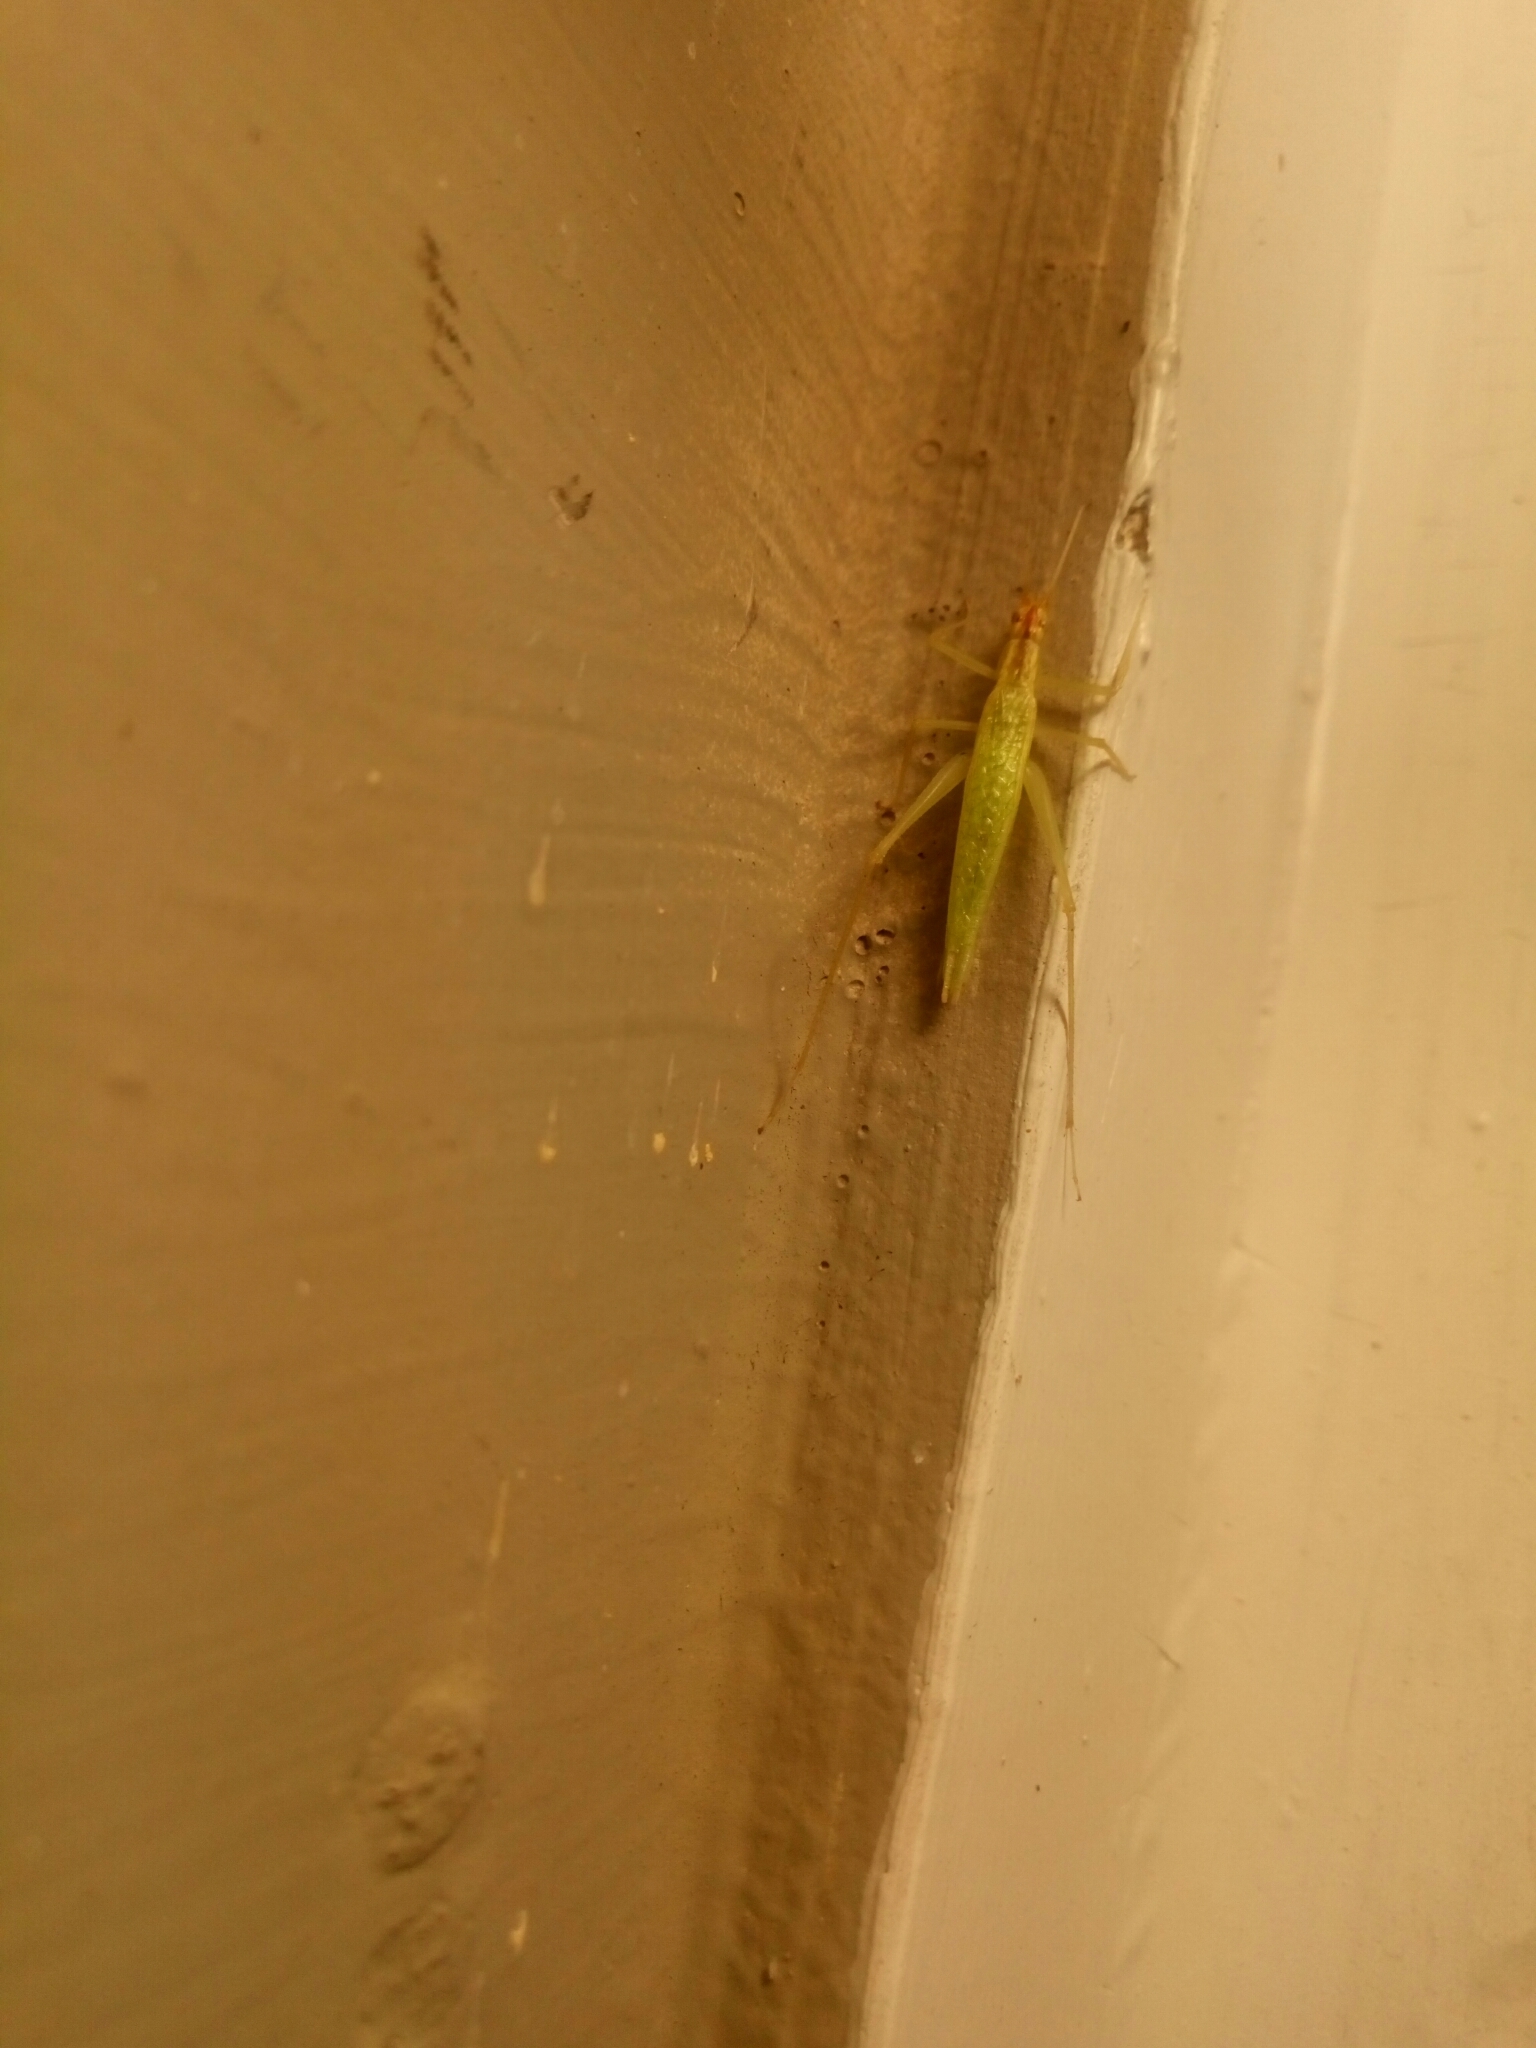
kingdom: Animalia
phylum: Arthropoda
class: Insecta
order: Orthoptera
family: Gryllidae
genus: Oecanthus
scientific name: Oecanthus niveus
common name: Narrow-winged tree cricket
